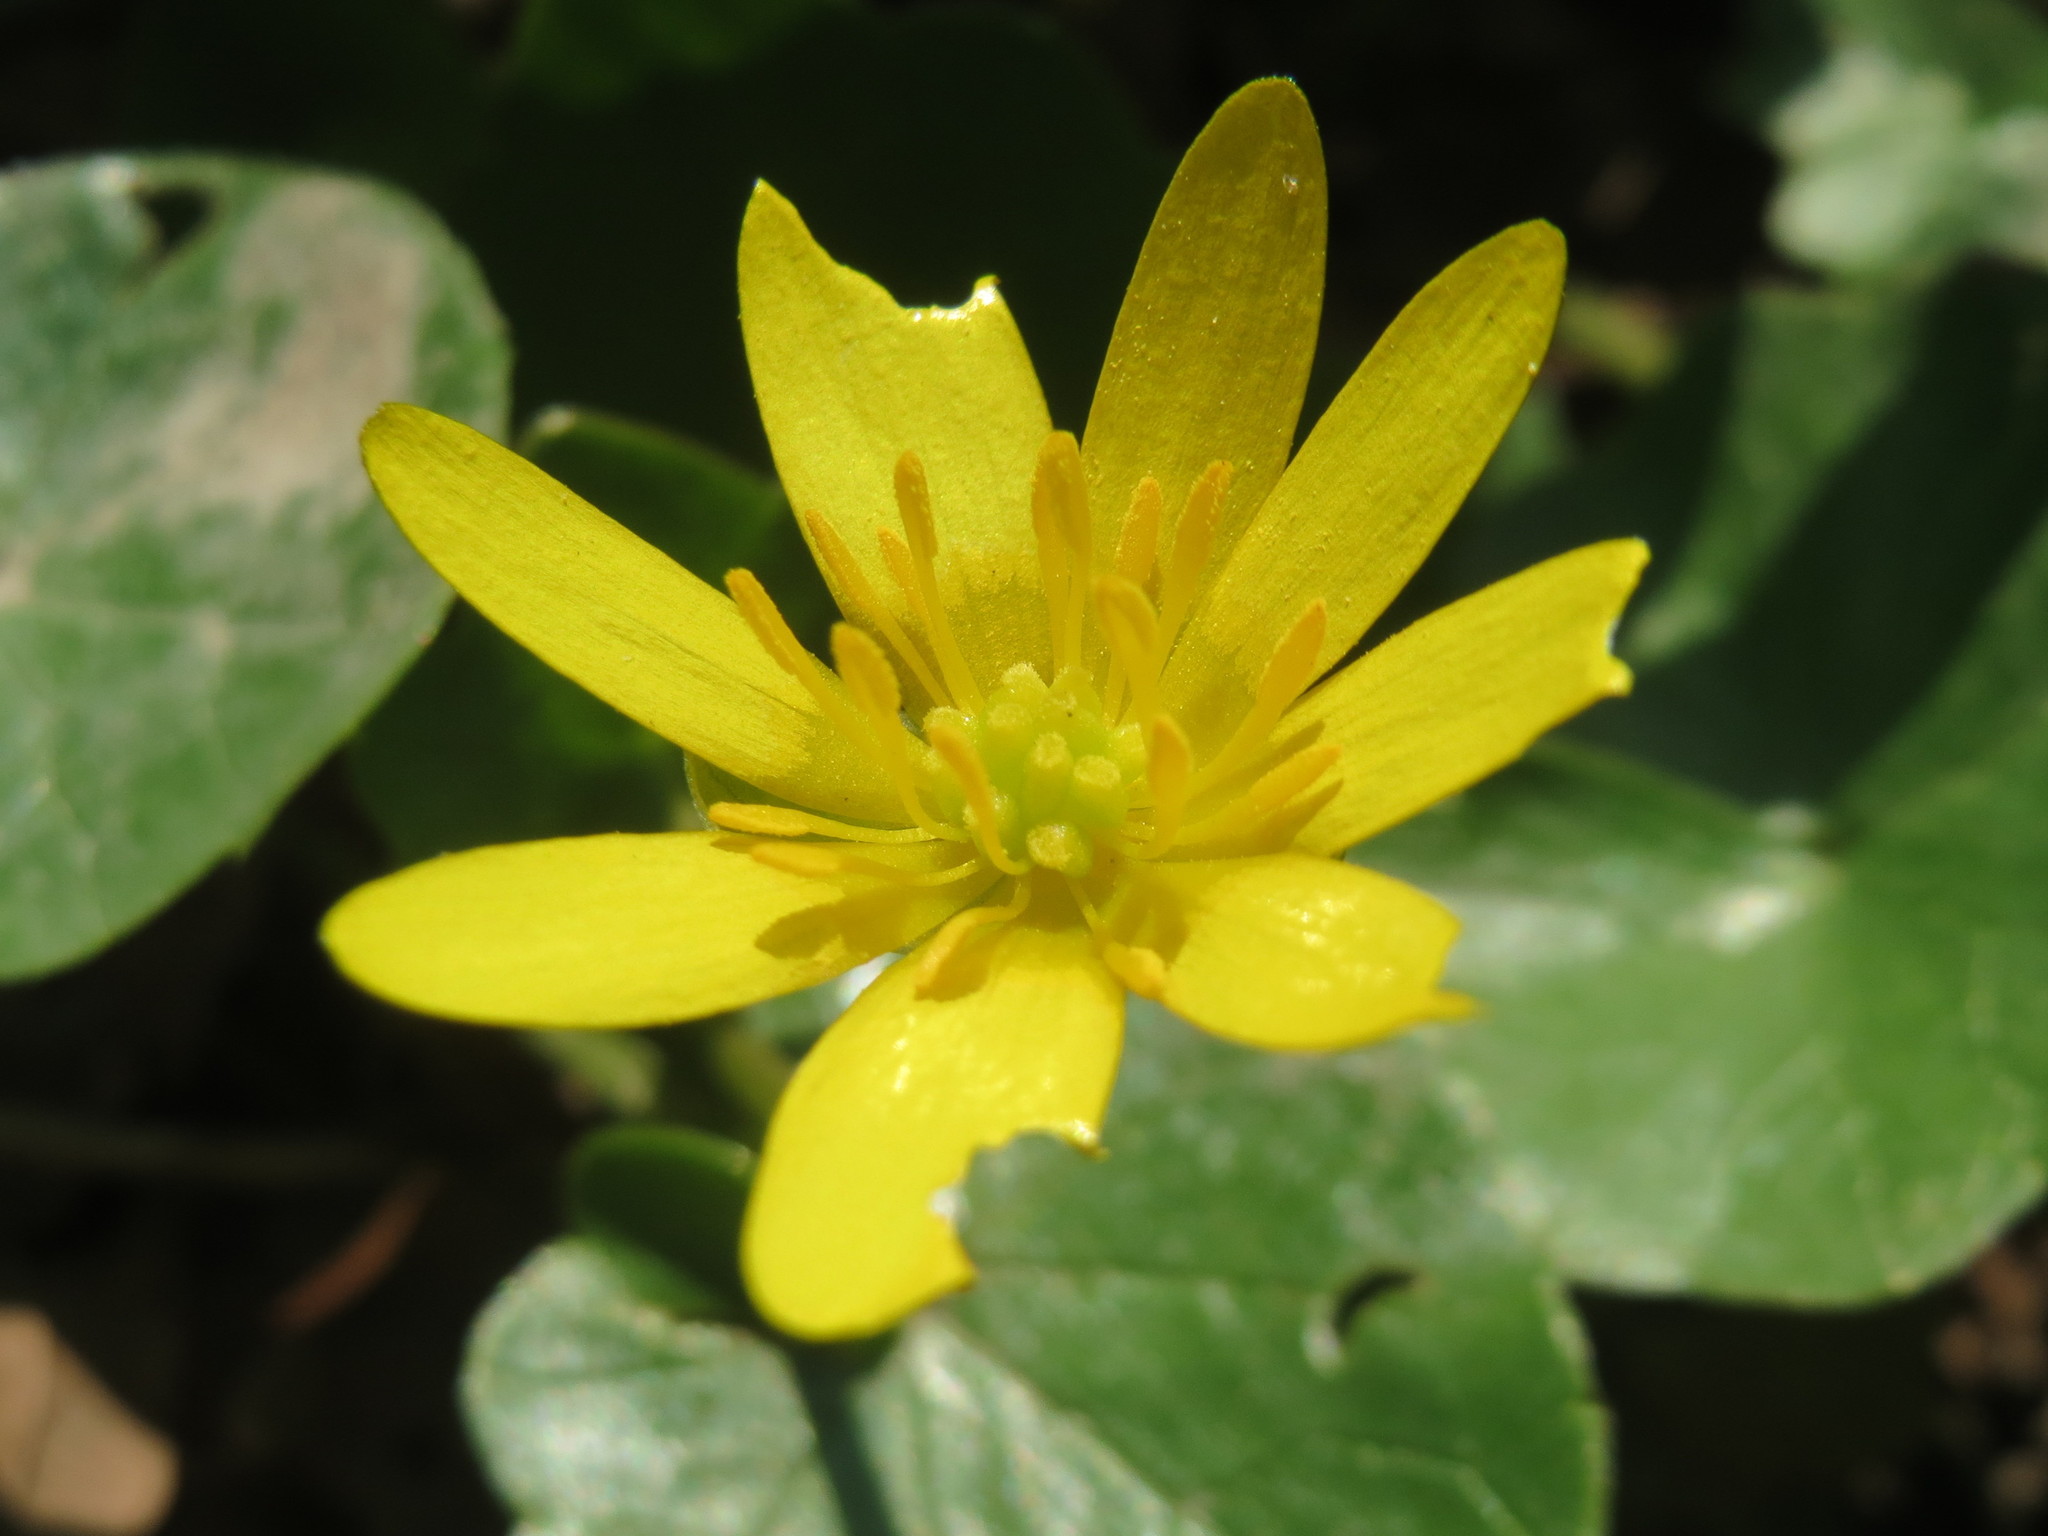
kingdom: Plantae
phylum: Tracheophyta
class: Magnoliopsida
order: Ranunculales
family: Ranunculaceae
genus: Ficaria
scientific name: Ficaria verna
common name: Lesser celandine
